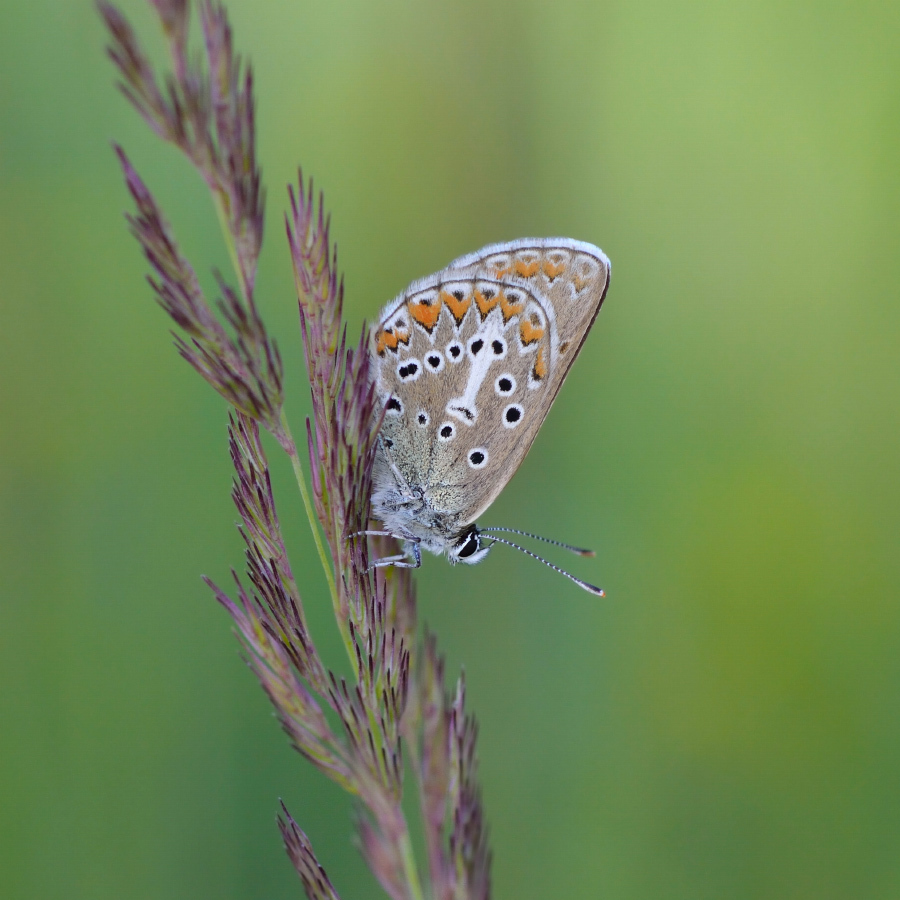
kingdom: Animalia
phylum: Arthropoda
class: Insecta
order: Lepidoptera
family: Lycaenidae
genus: Eumedonia
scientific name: Eumedonia eumedon
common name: Geranium argus
